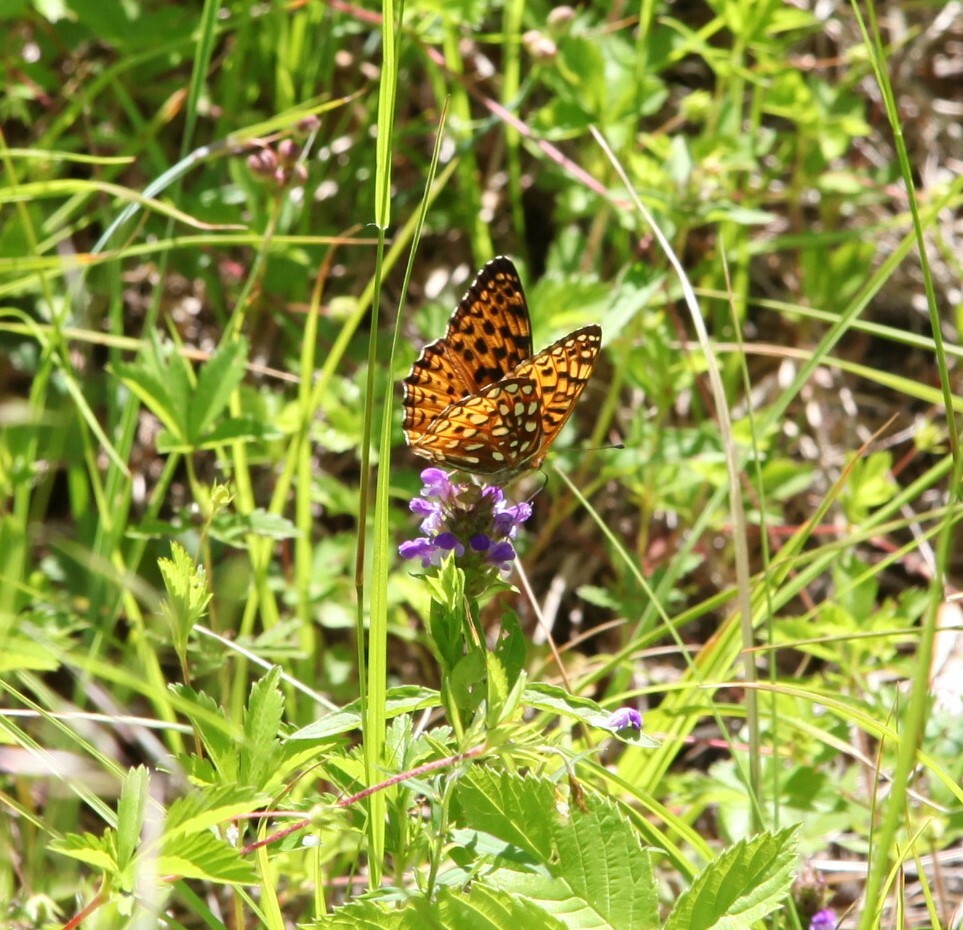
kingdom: Animalia
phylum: Arthropoda
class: Insecta
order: Lepidoptera
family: Nymphalidae
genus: Speyeria
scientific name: Speyeria atlantis
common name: Atlantis fritillary
